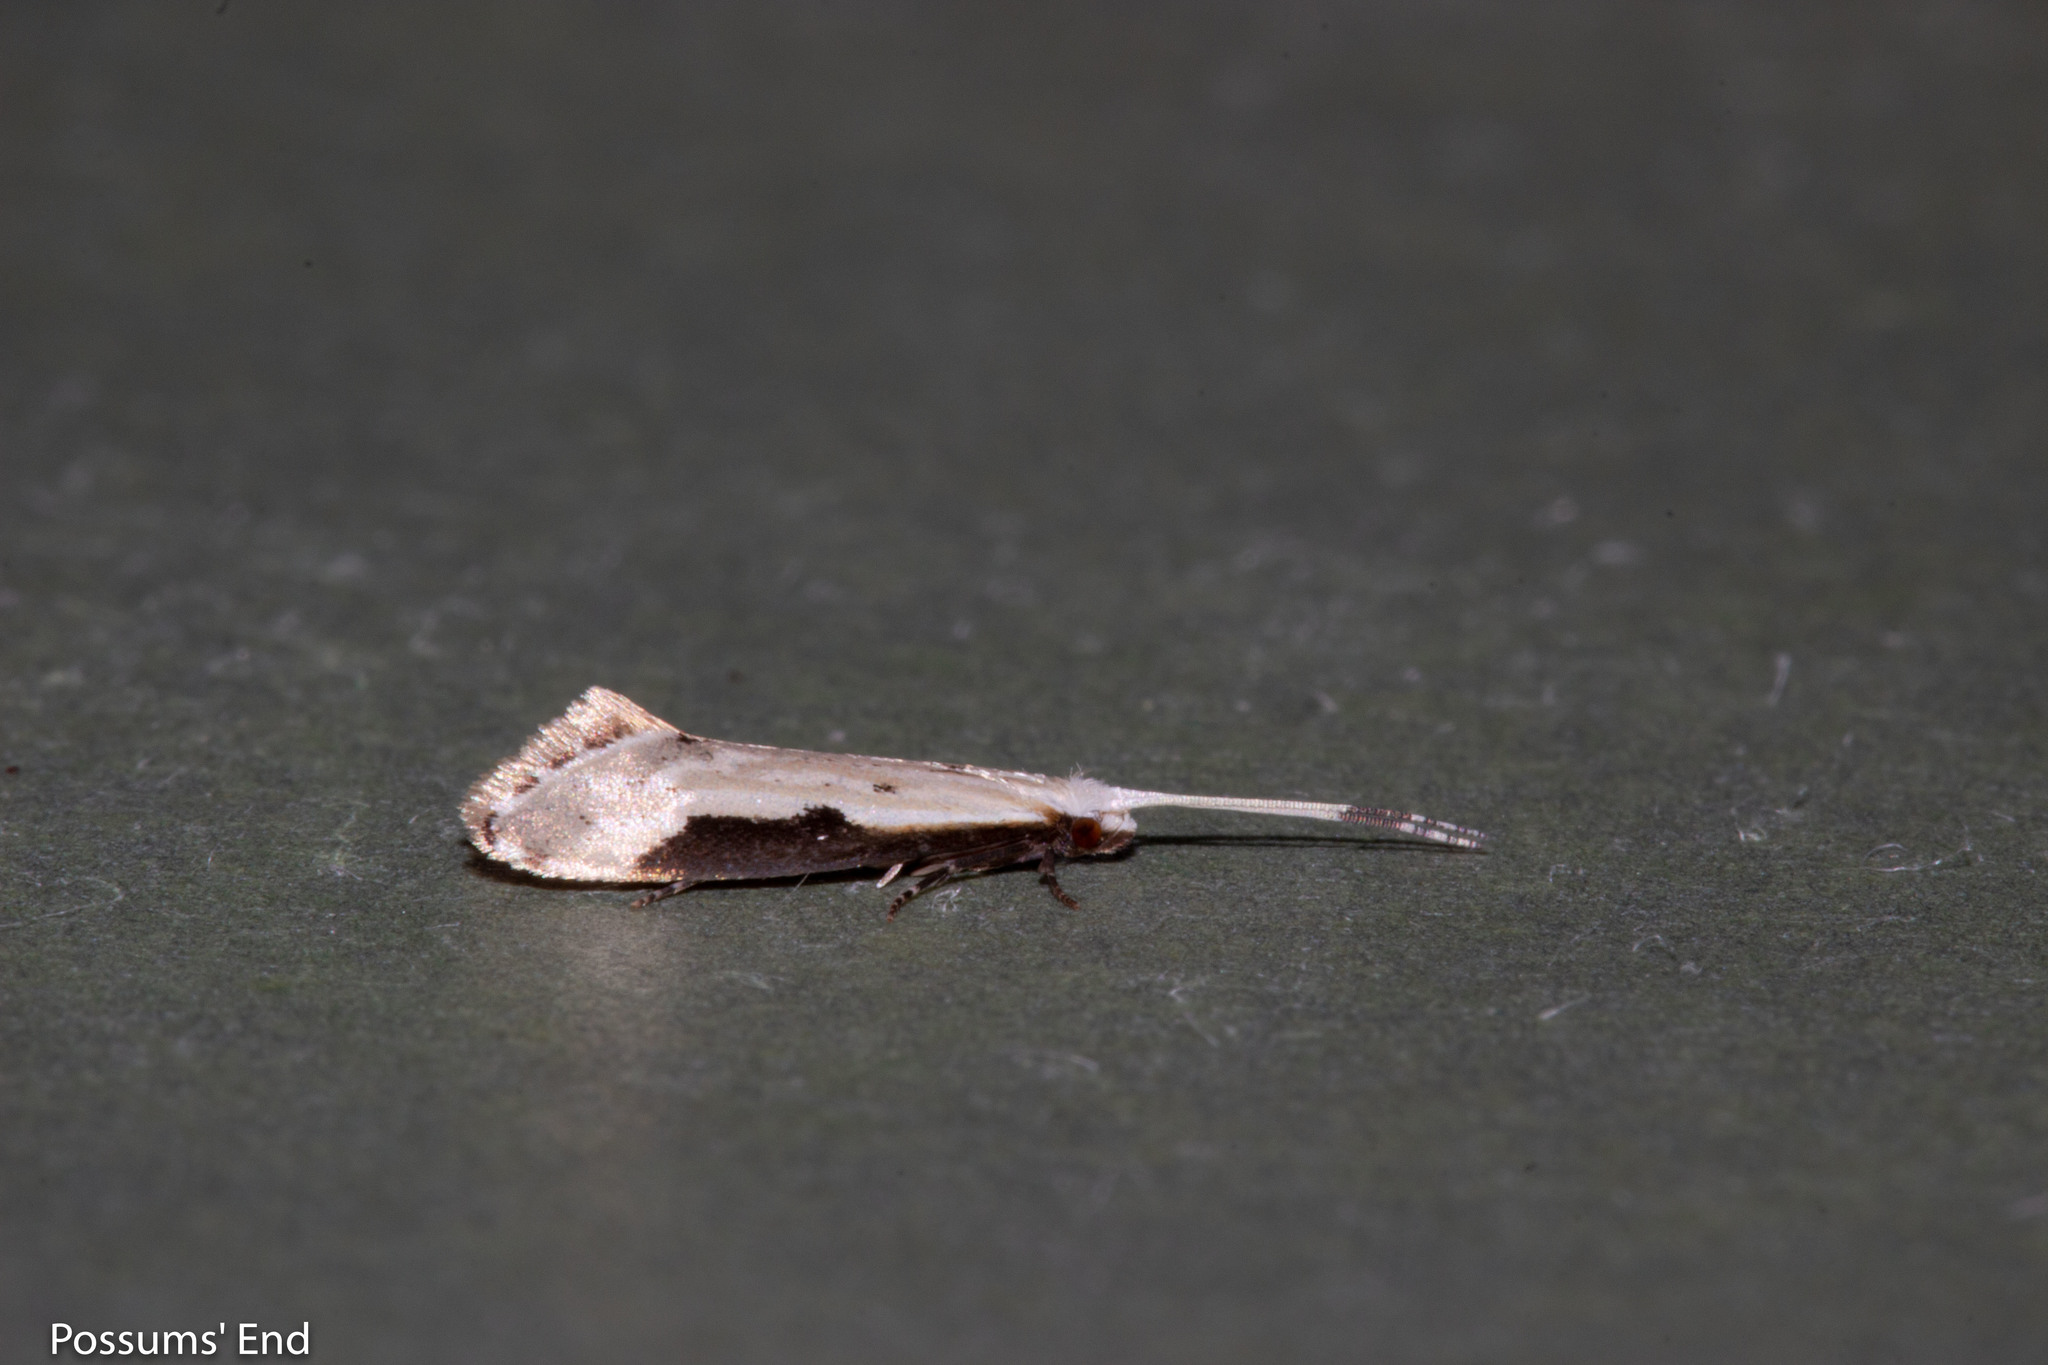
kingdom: Animalia
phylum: Arthropoda
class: Insecta
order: Lepidoptera
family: Tineidae
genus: Sagephora
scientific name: Sagephora phortegella
